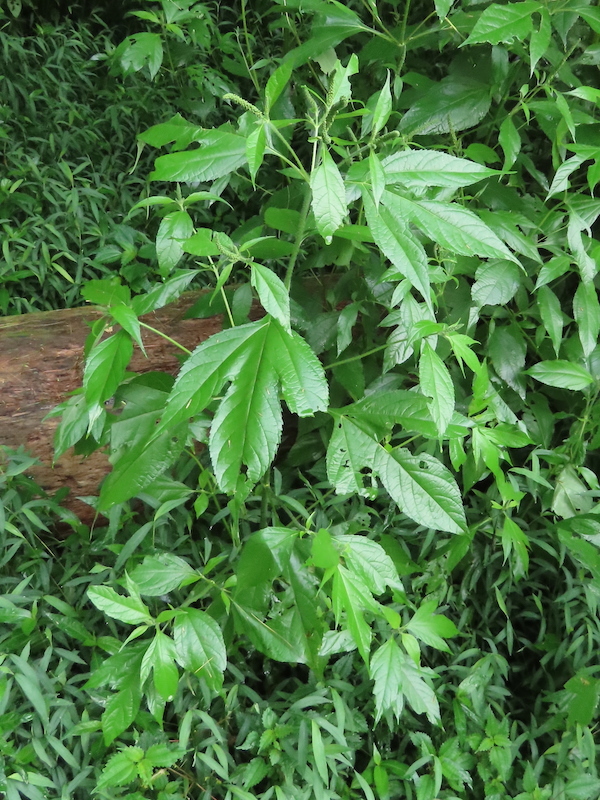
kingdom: Plantae
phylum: Tracheophyta
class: Magnoliopsida
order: Asterales
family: Asteraceae
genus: Ambrosia
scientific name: Ambrosia trifida
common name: Giant ragweed
